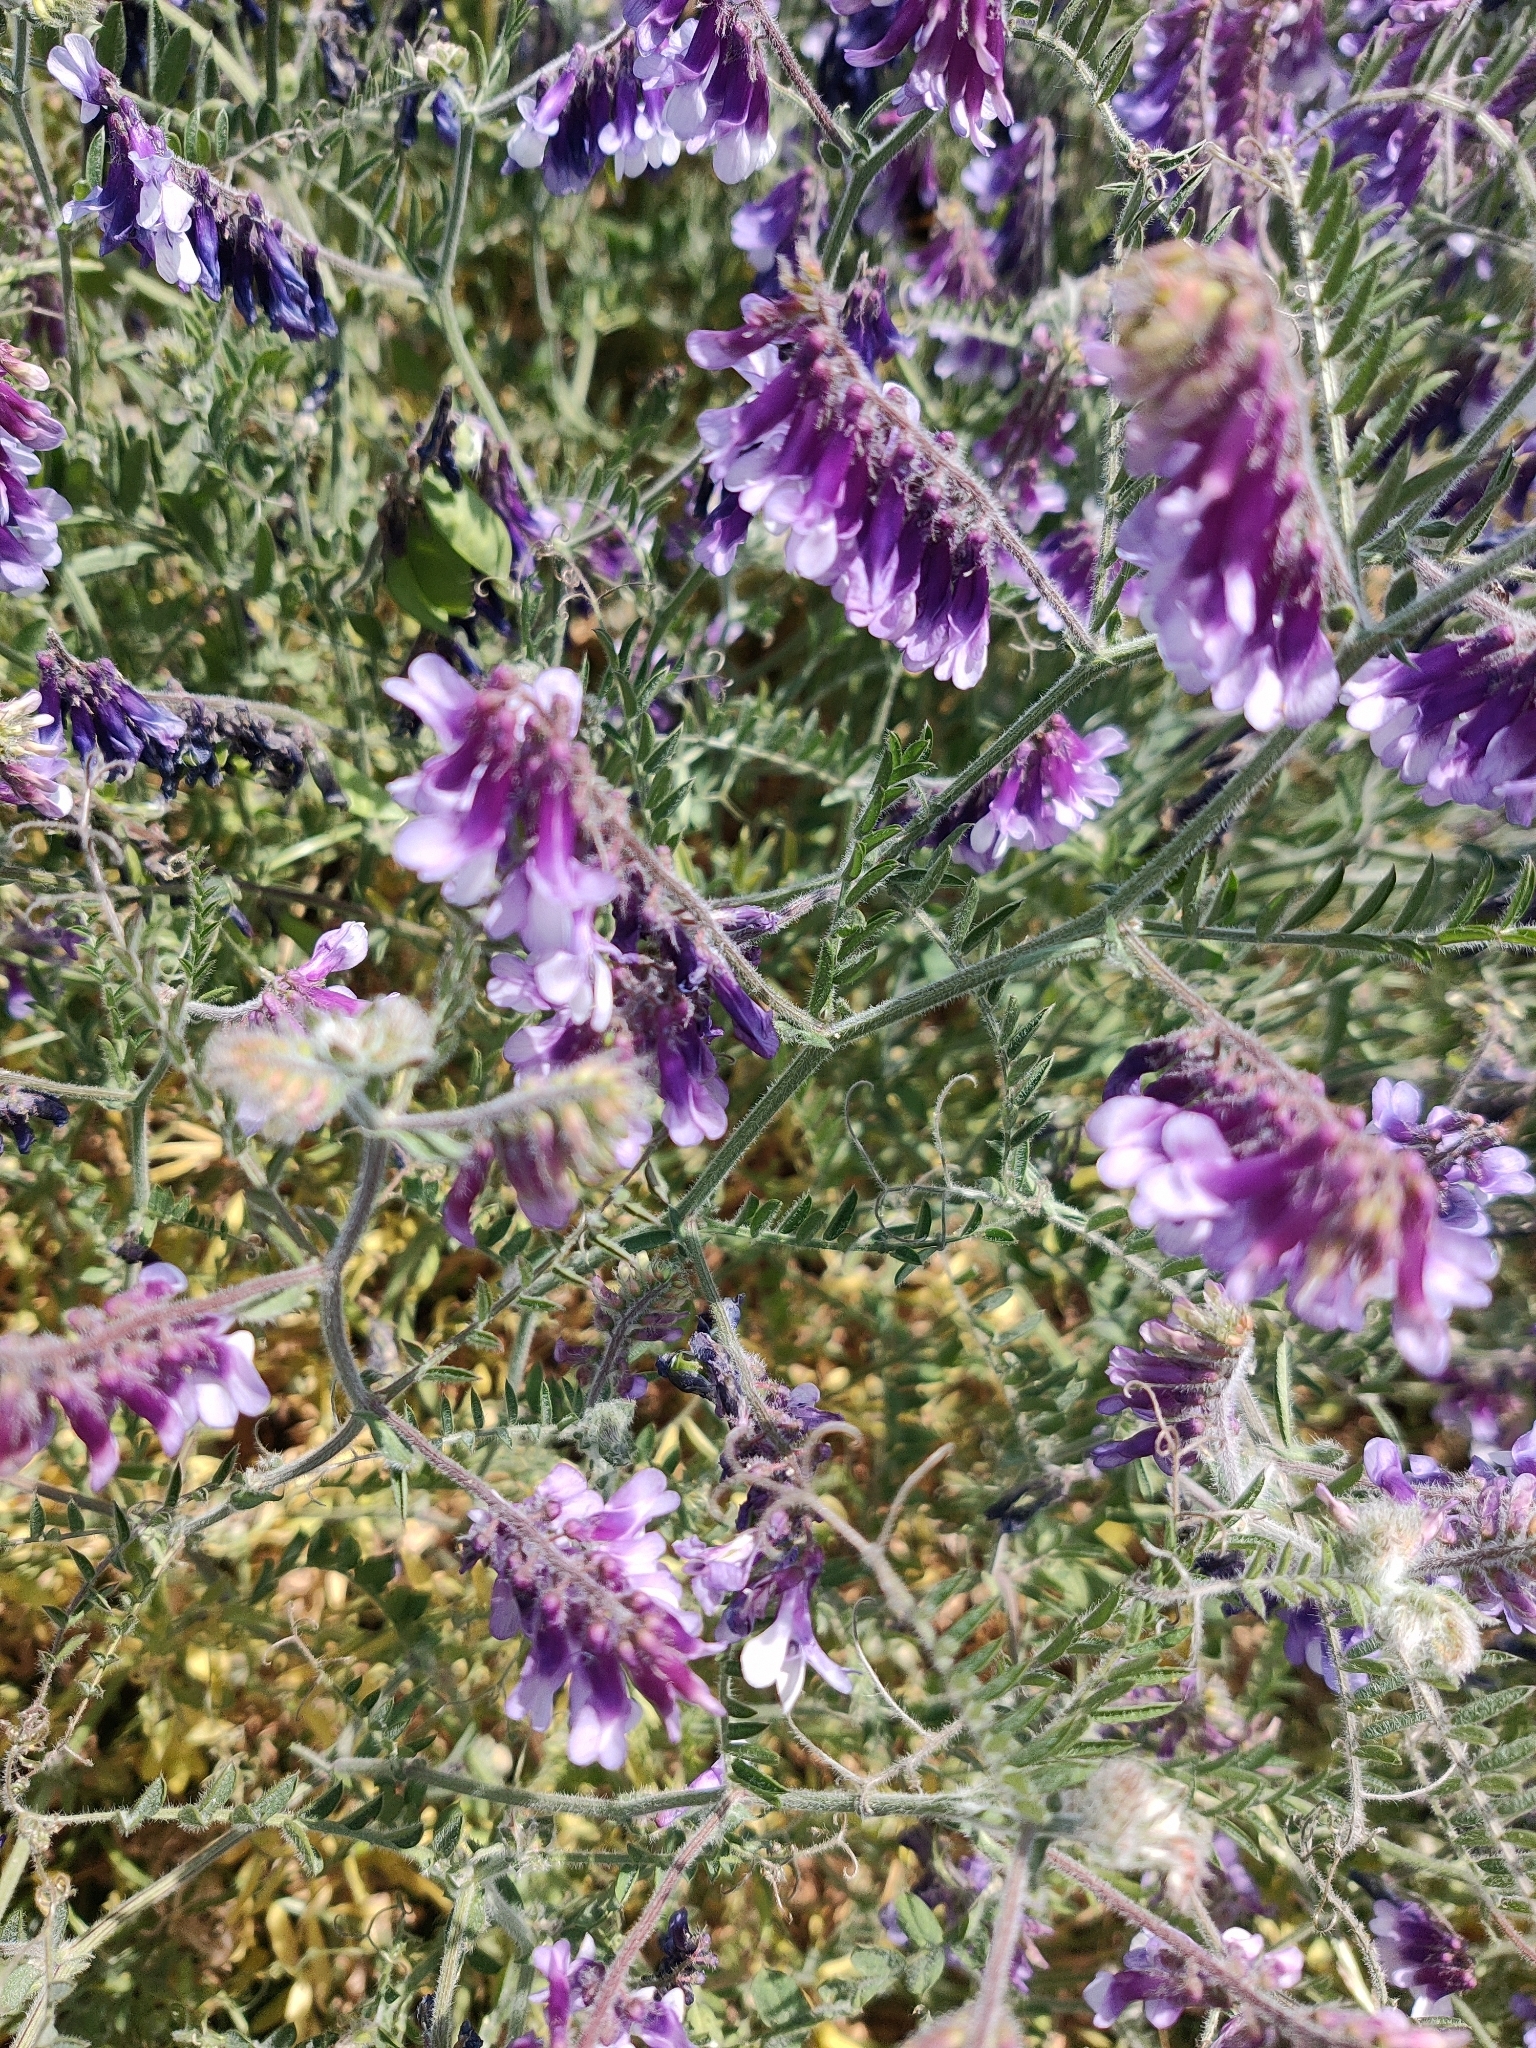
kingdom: Plantae
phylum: Tracheophyta
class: Magnoliopsida
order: Fabales
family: Fabaceae
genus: Vicia
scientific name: Vicia villosa
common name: Fodder vetch
